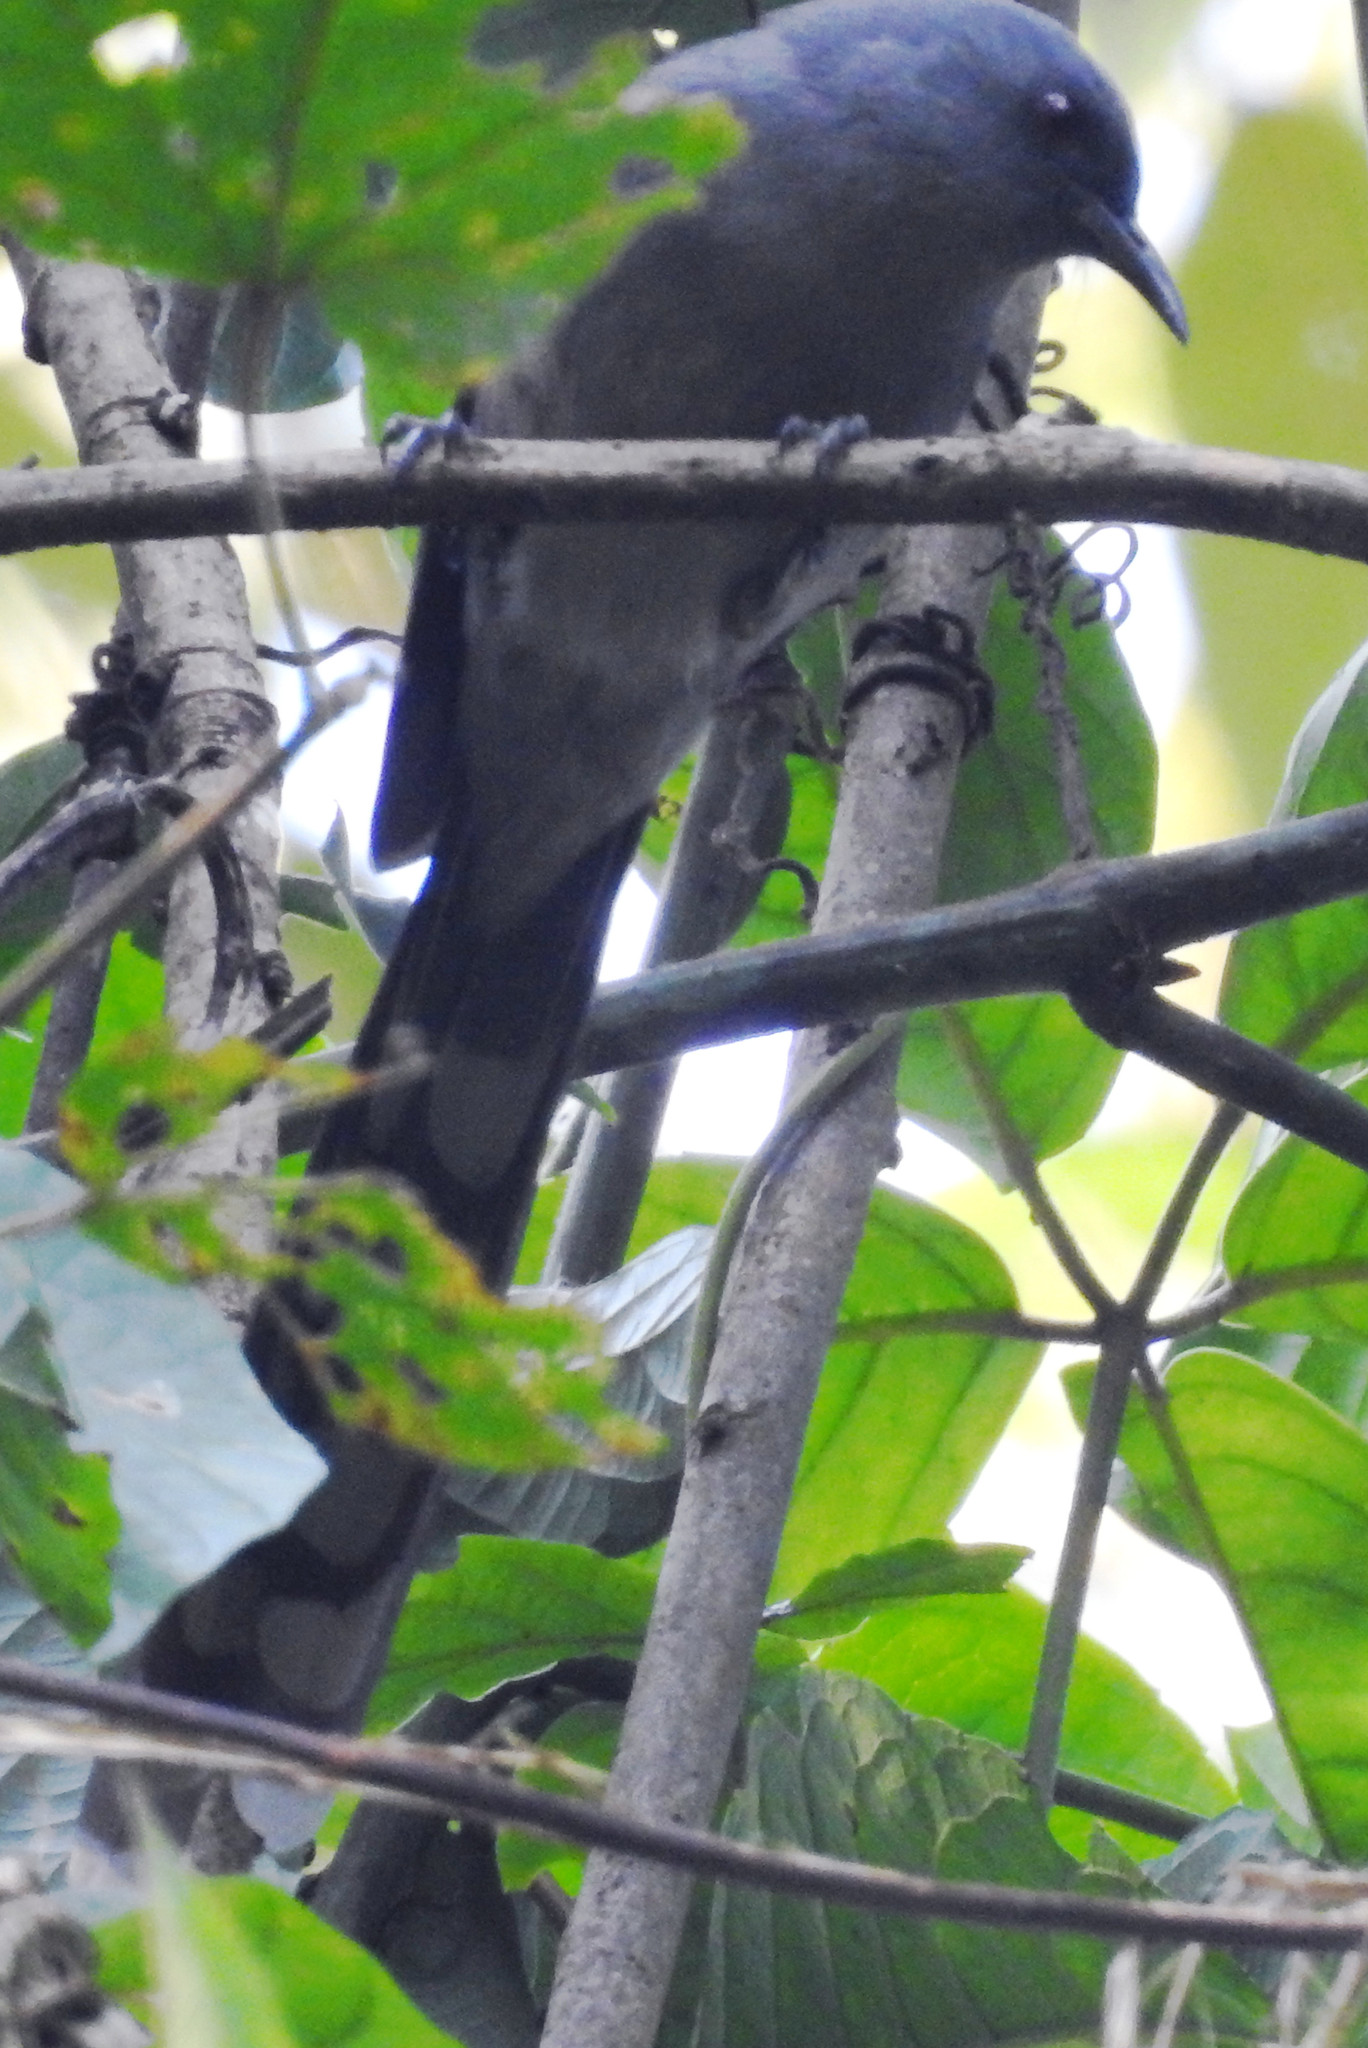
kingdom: Animalia
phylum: Chordata
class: Aves
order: Passeriformes
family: Leiothrichidae
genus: Heterophasia
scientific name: Heterophasia picaoides
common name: Long-tailed sibia
